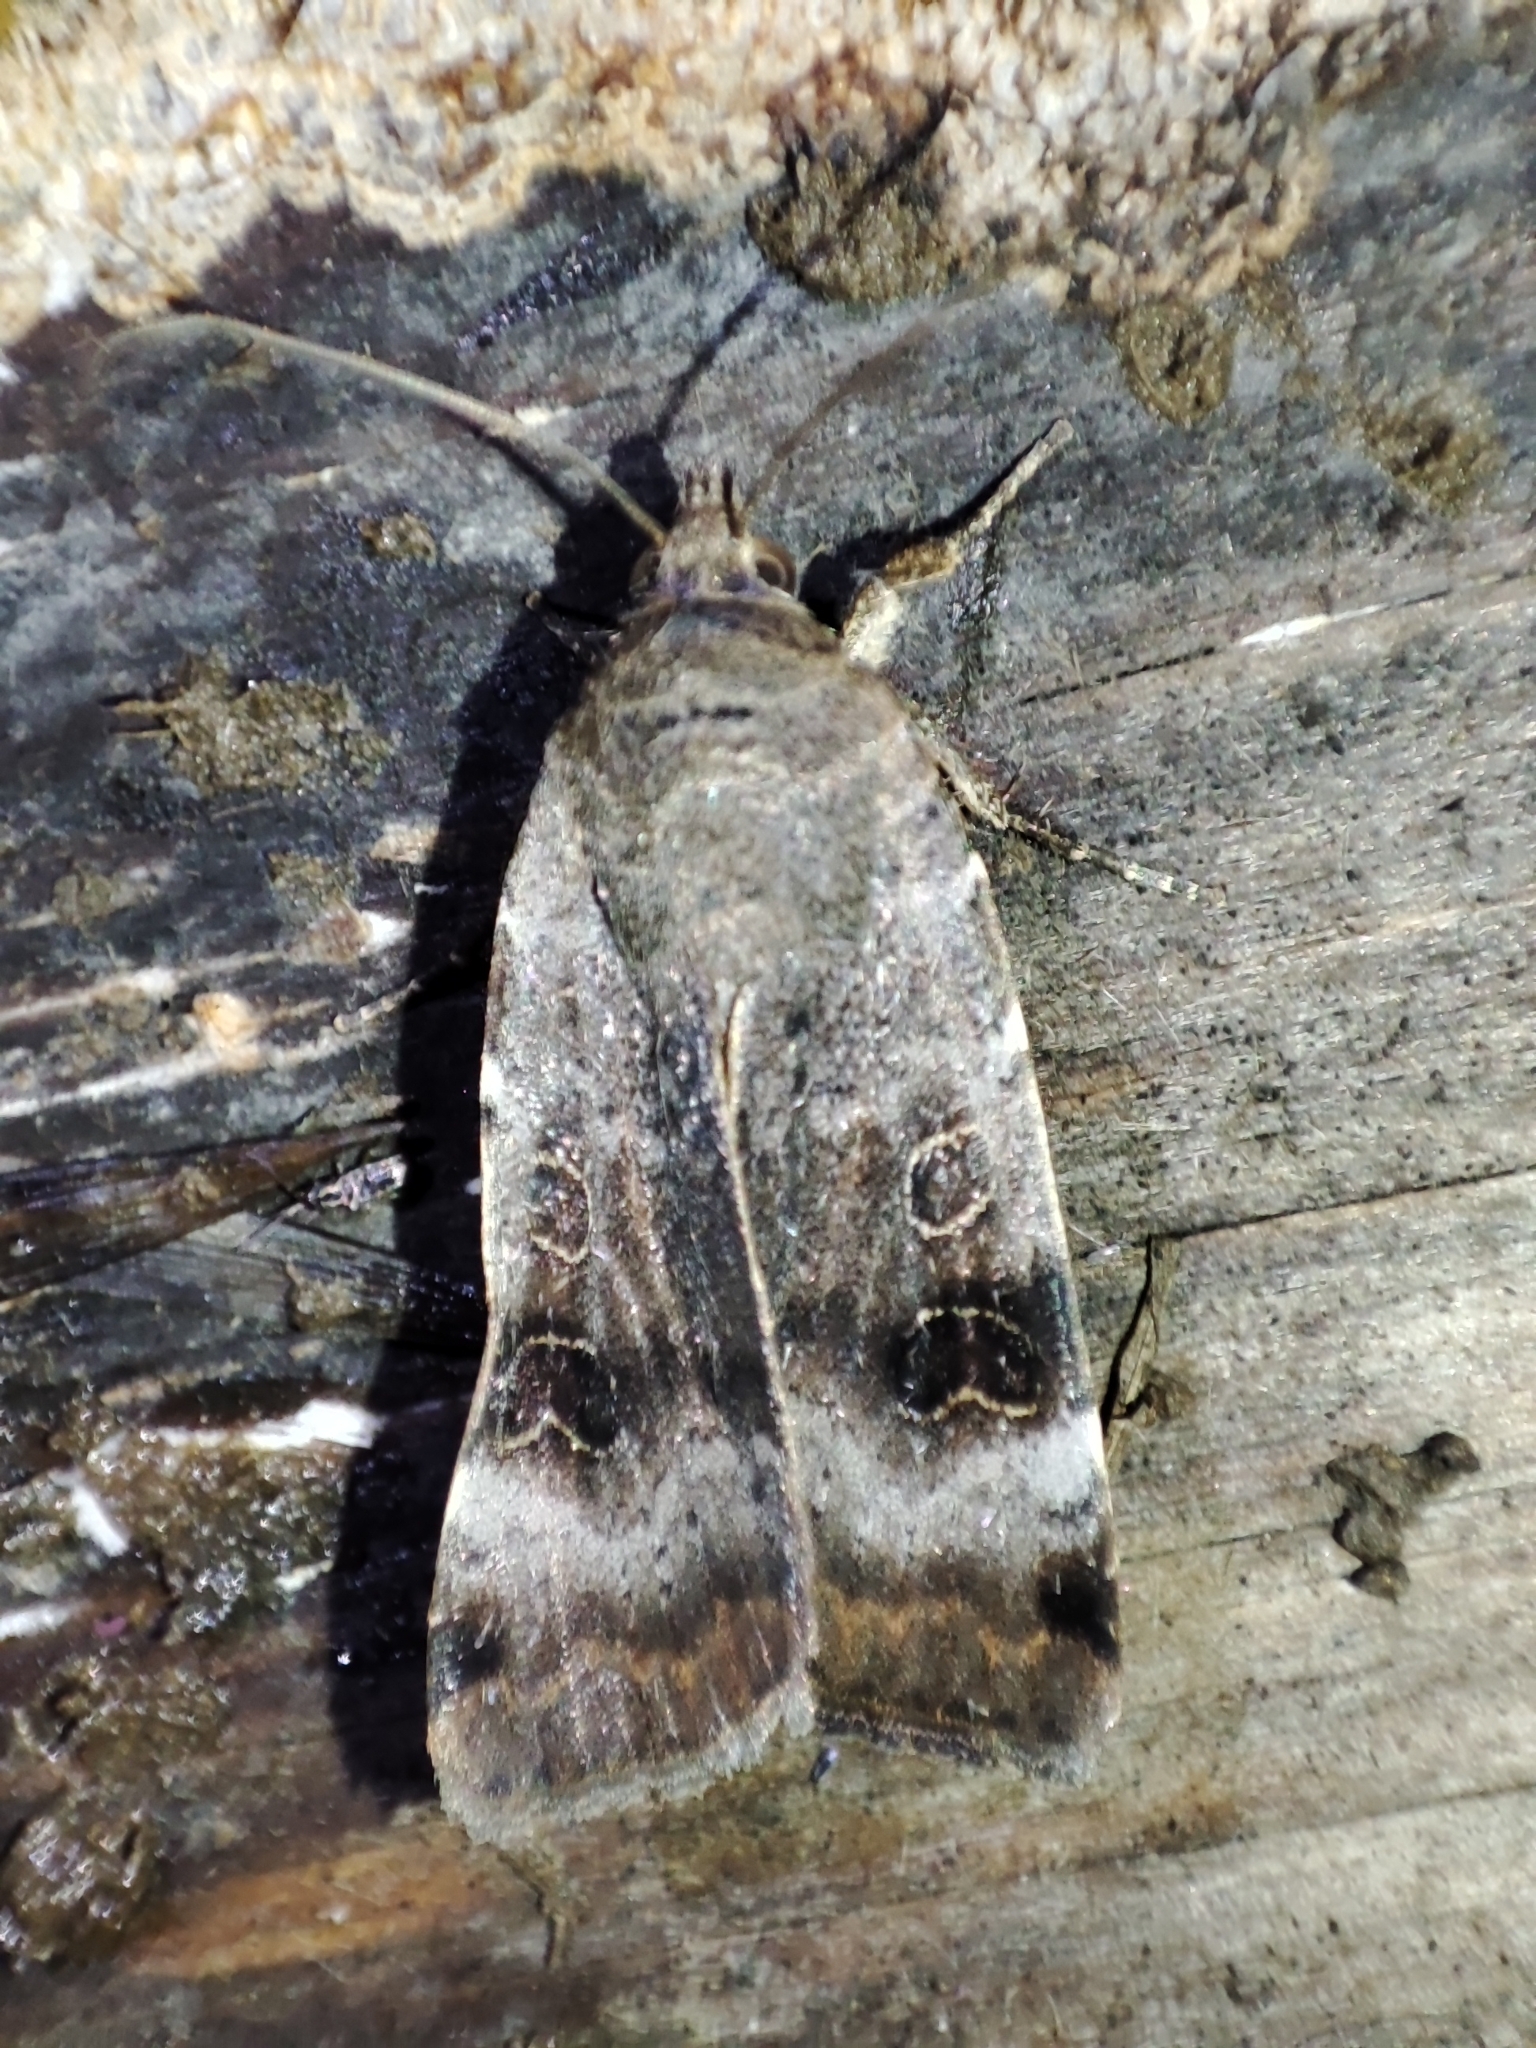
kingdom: Animalia
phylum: Arthropoda
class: Insecta
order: Lepidoptera
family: Noctuidae
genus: Noctua
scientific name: Noctua interposita
